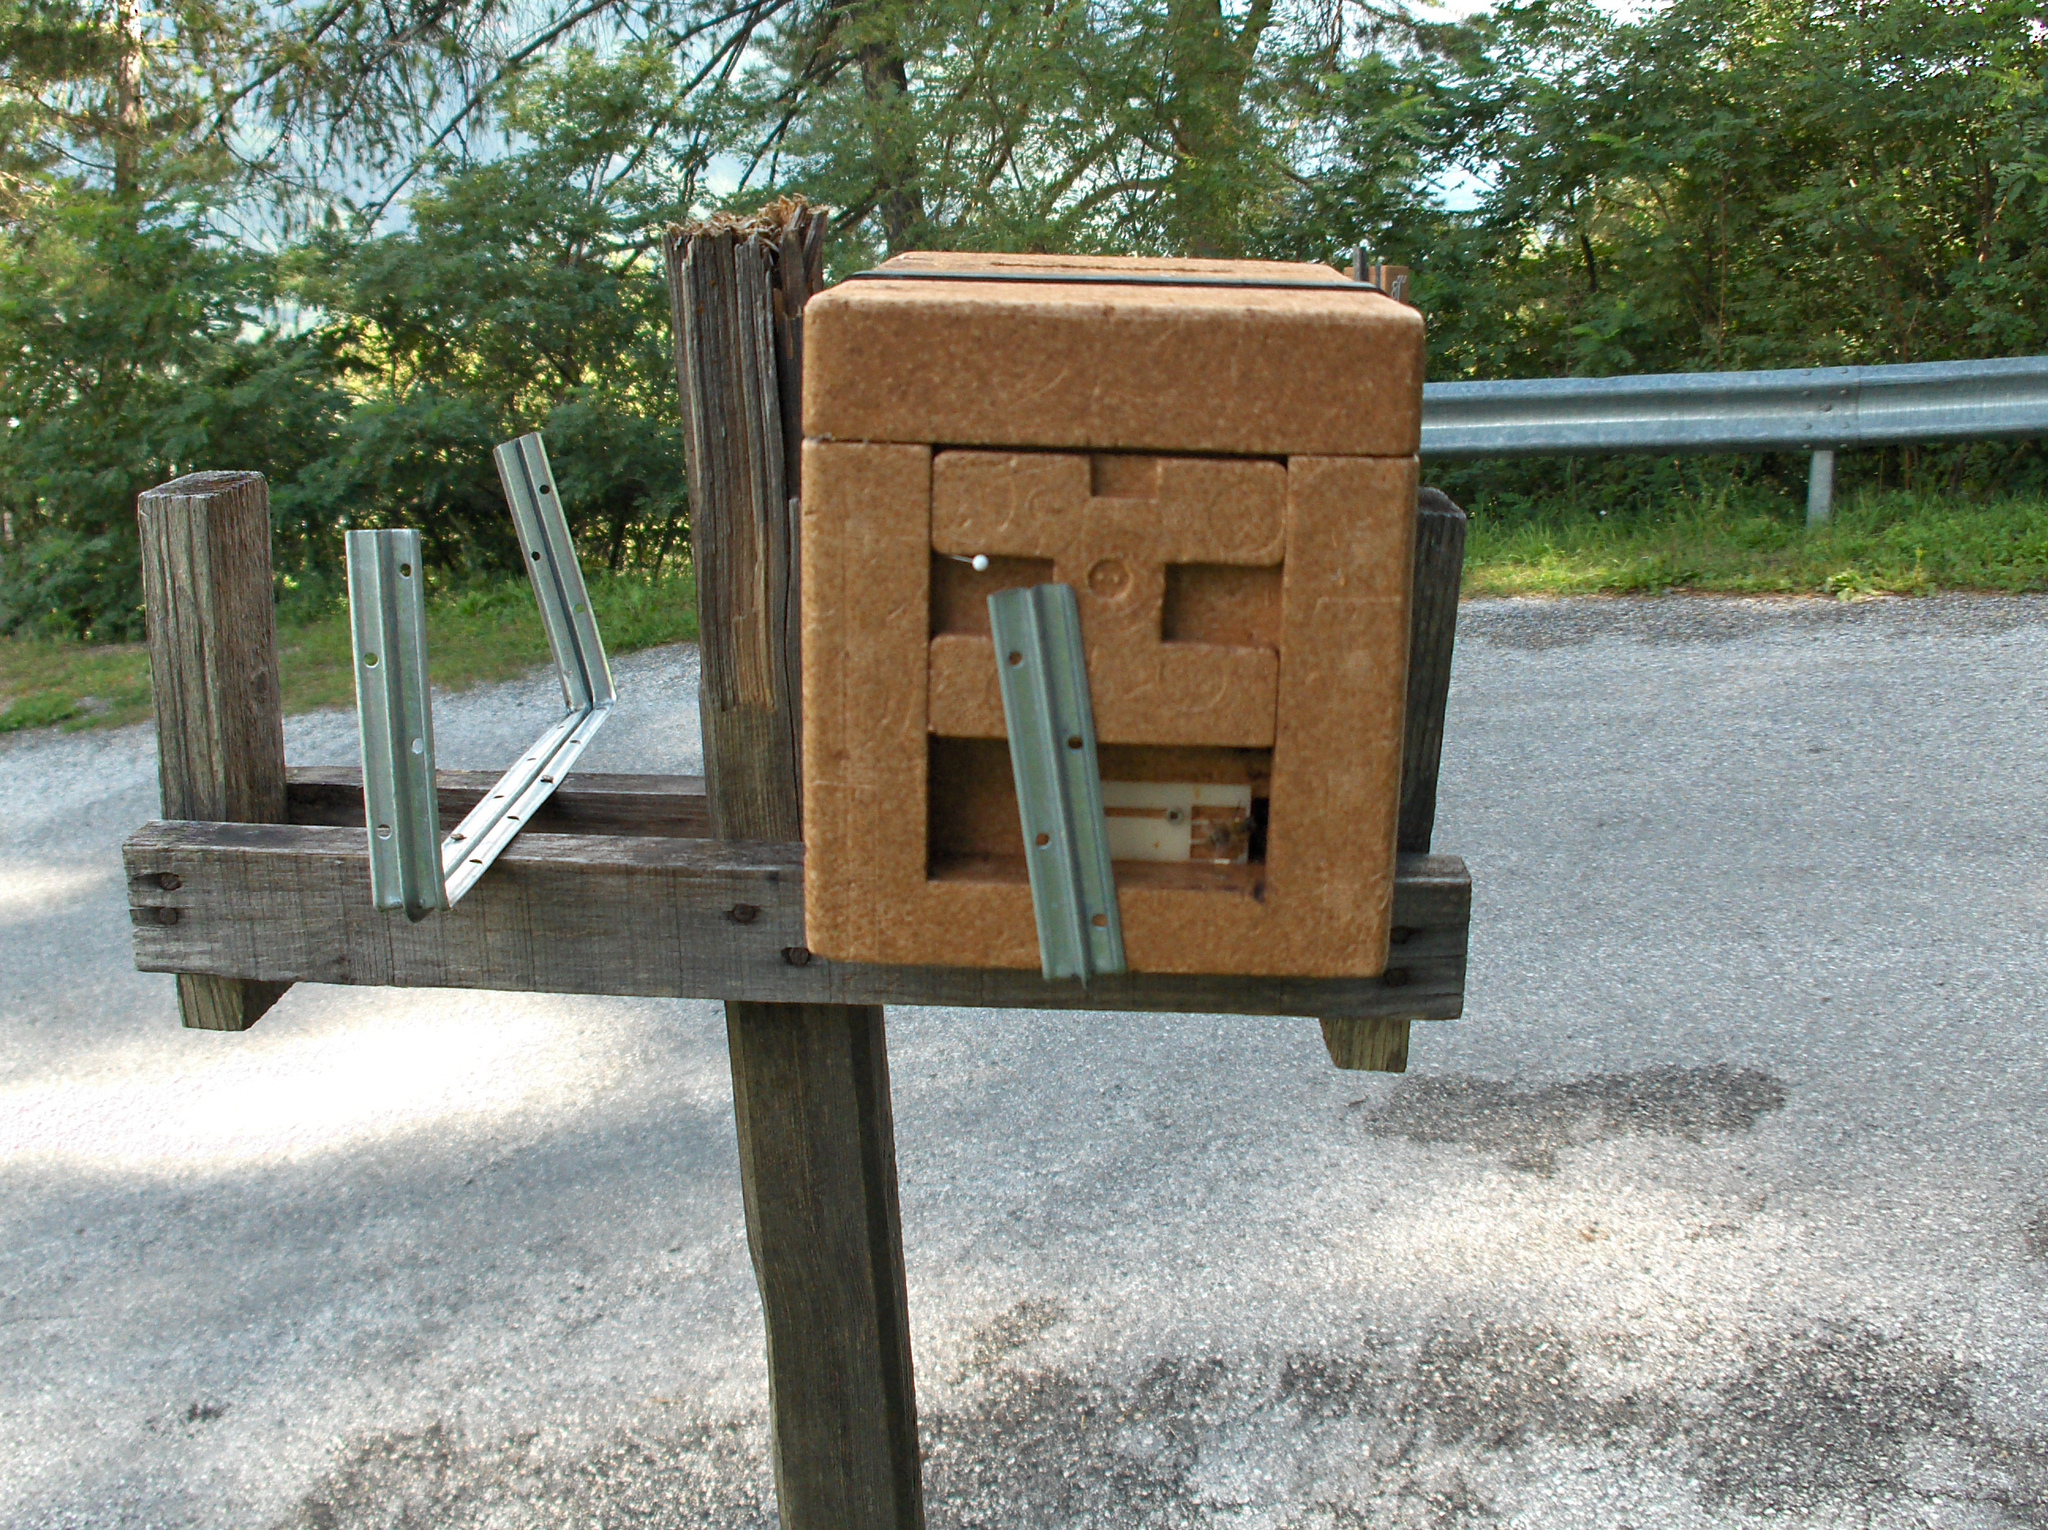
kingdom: Animalia
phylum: Arthropoda
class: Insecta
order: Hymenoptera
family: Apidae
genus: Apis
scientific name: Apis mellifera
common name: Honey bee
